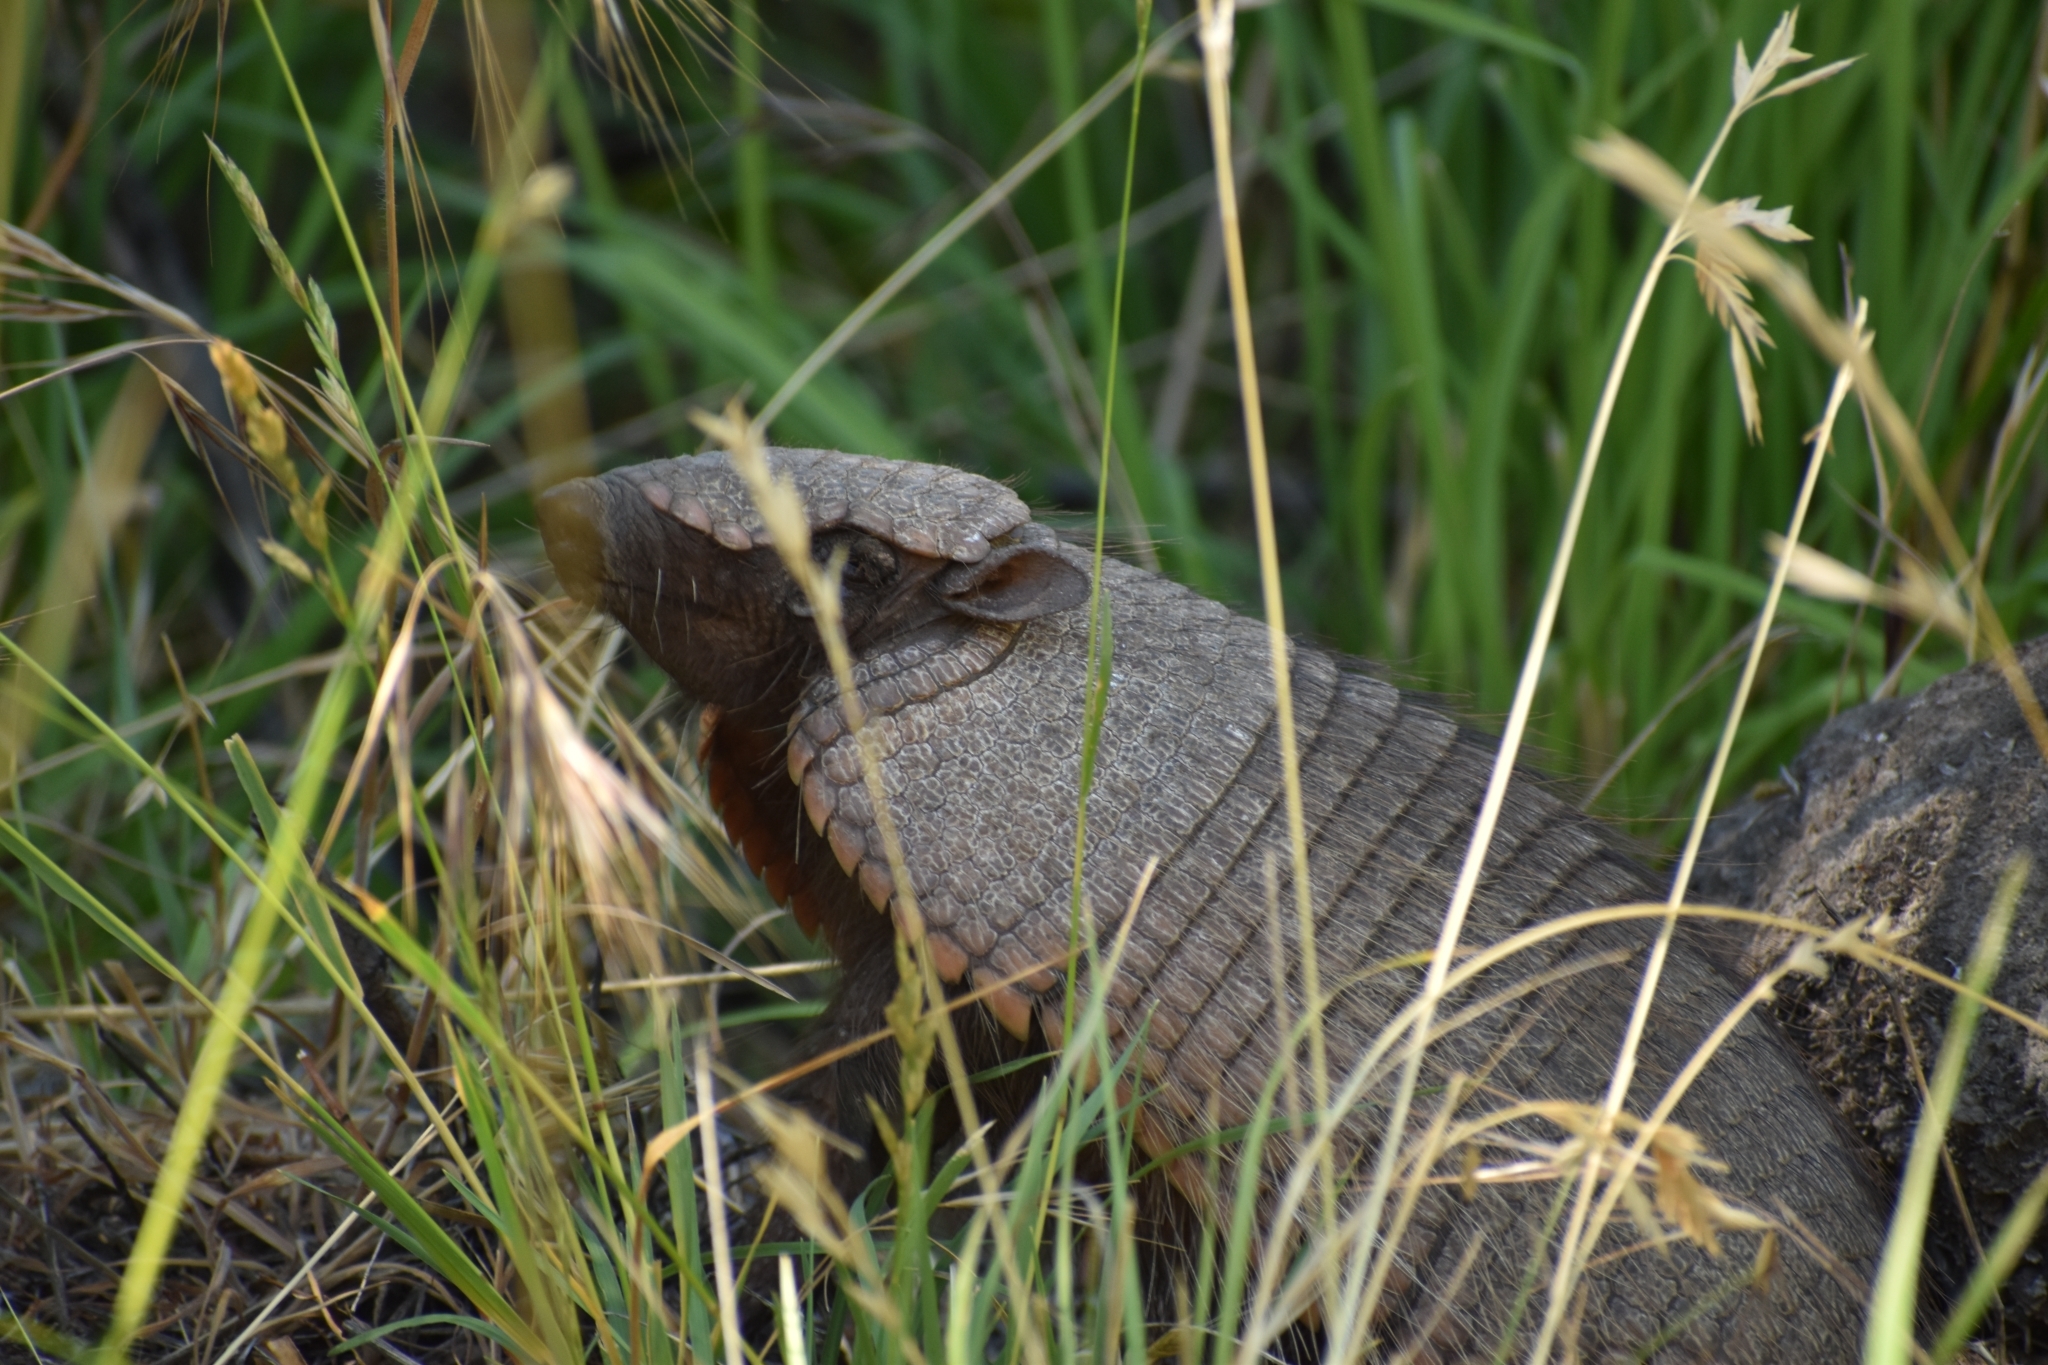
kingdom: Animalia
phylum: Chordata
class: Mammalia
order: Cingulata
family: Dasypodidae
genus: Chaetophractus
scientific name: Chaetophractus villosus
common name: Big hairy armadillo
